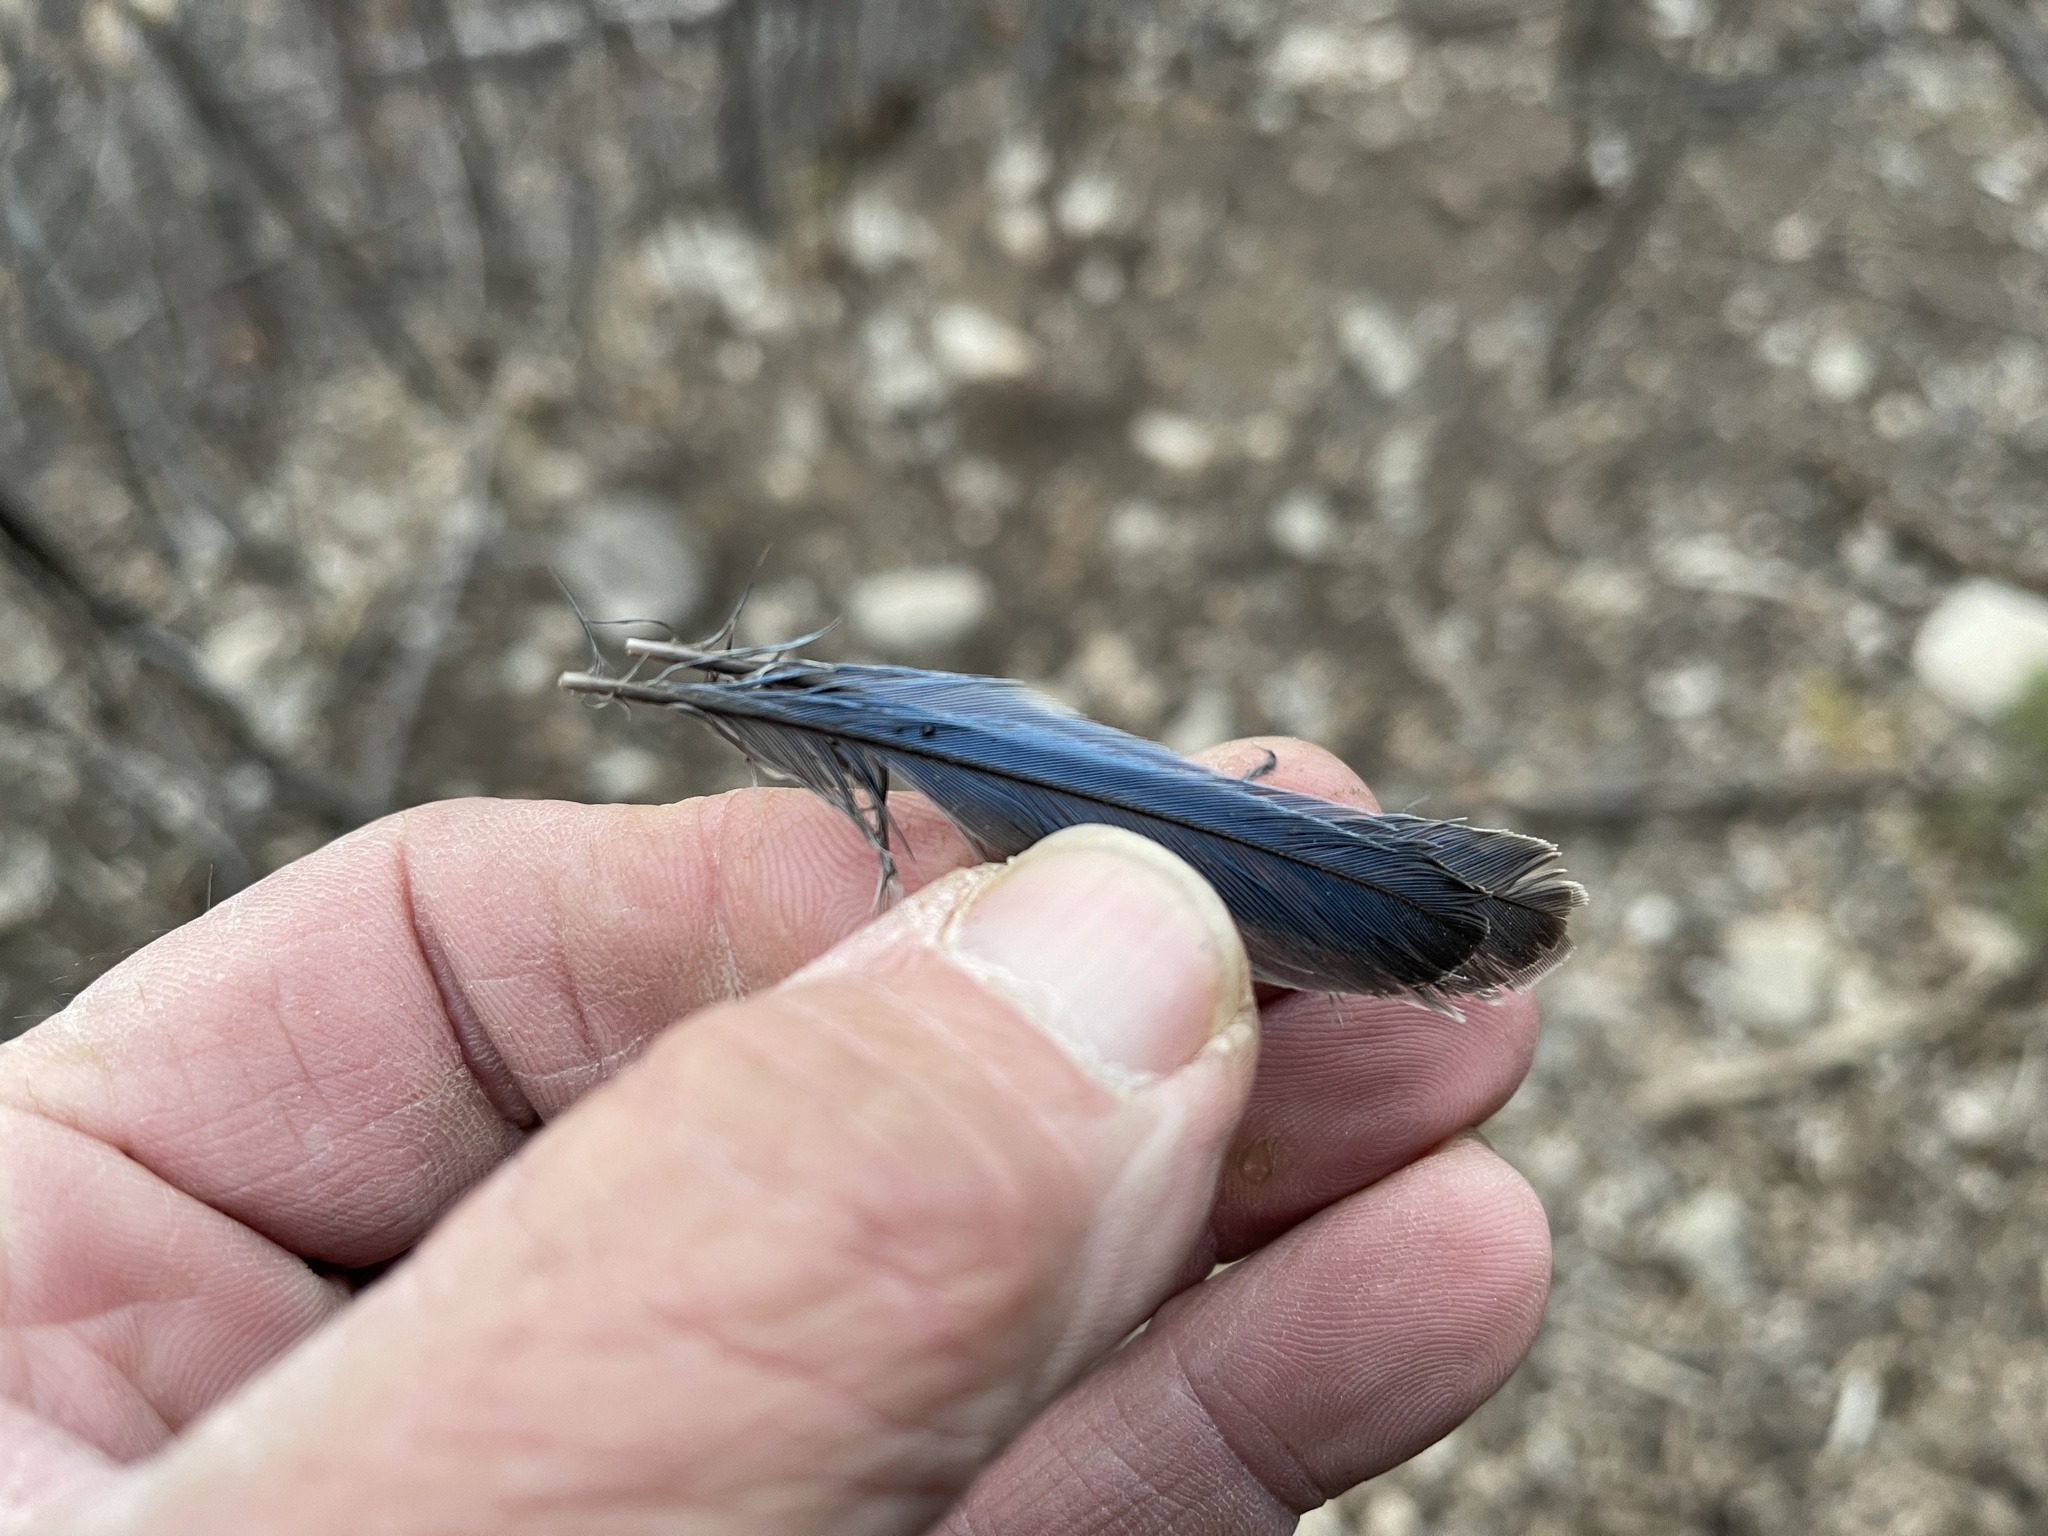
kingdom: Animalia
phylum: Chordata
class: Aves
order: Passeriformes
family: Turdidae
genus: Sialia
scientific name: Sialia mexicana
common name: Western bluebird
